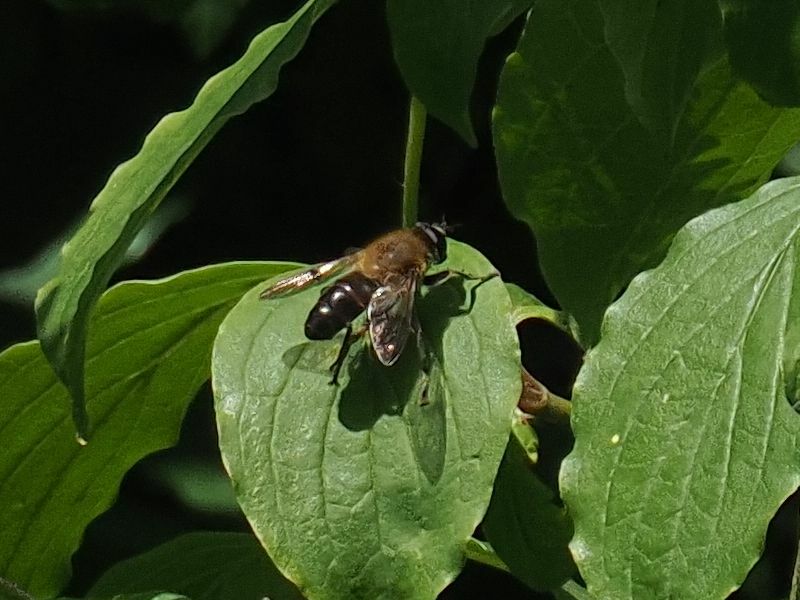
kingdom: Animalia
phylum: Arthropoda
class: Insecta
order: Diptera
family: Syrphidae
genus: Mallota
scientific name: Mallota cimbiciformis
